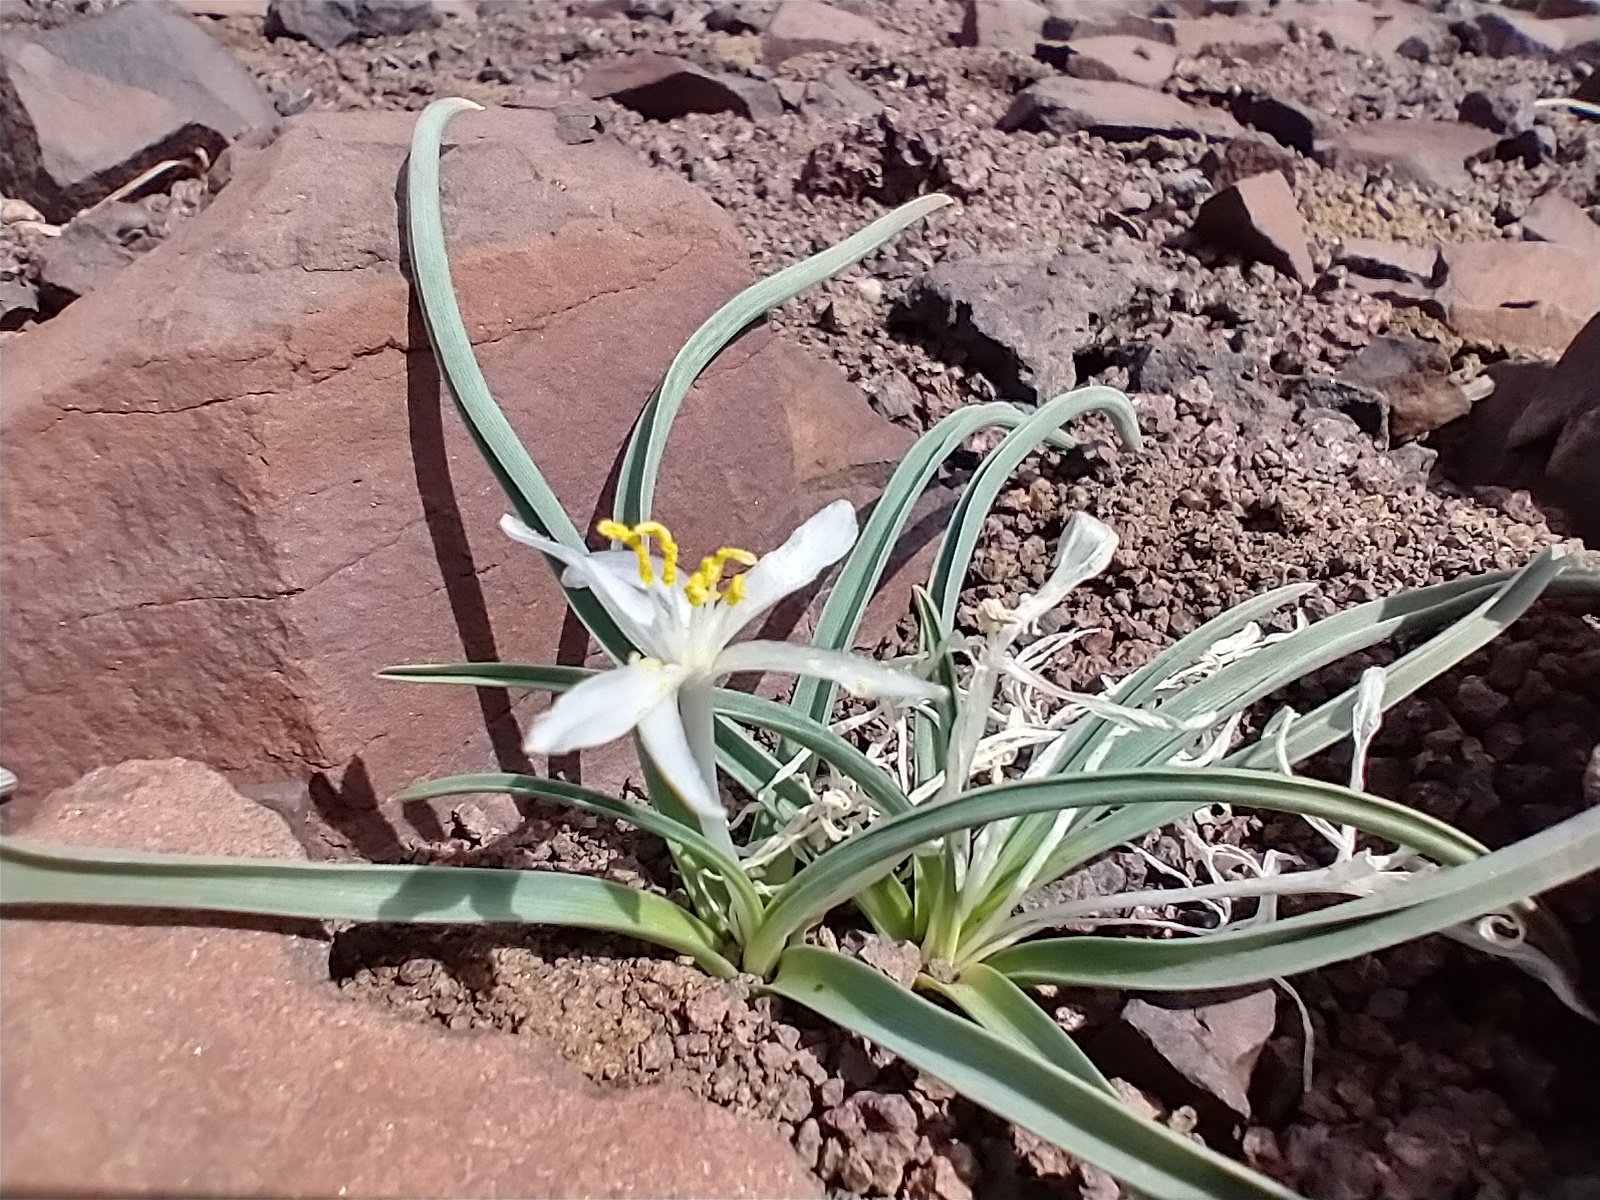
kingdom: Plantae
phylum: Tracheophyta
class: Liliopsida
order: Asparagales
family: Asparagaceae
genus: Leucocrinum
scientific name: Leucocrinum montanum
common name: Mountain-lily
